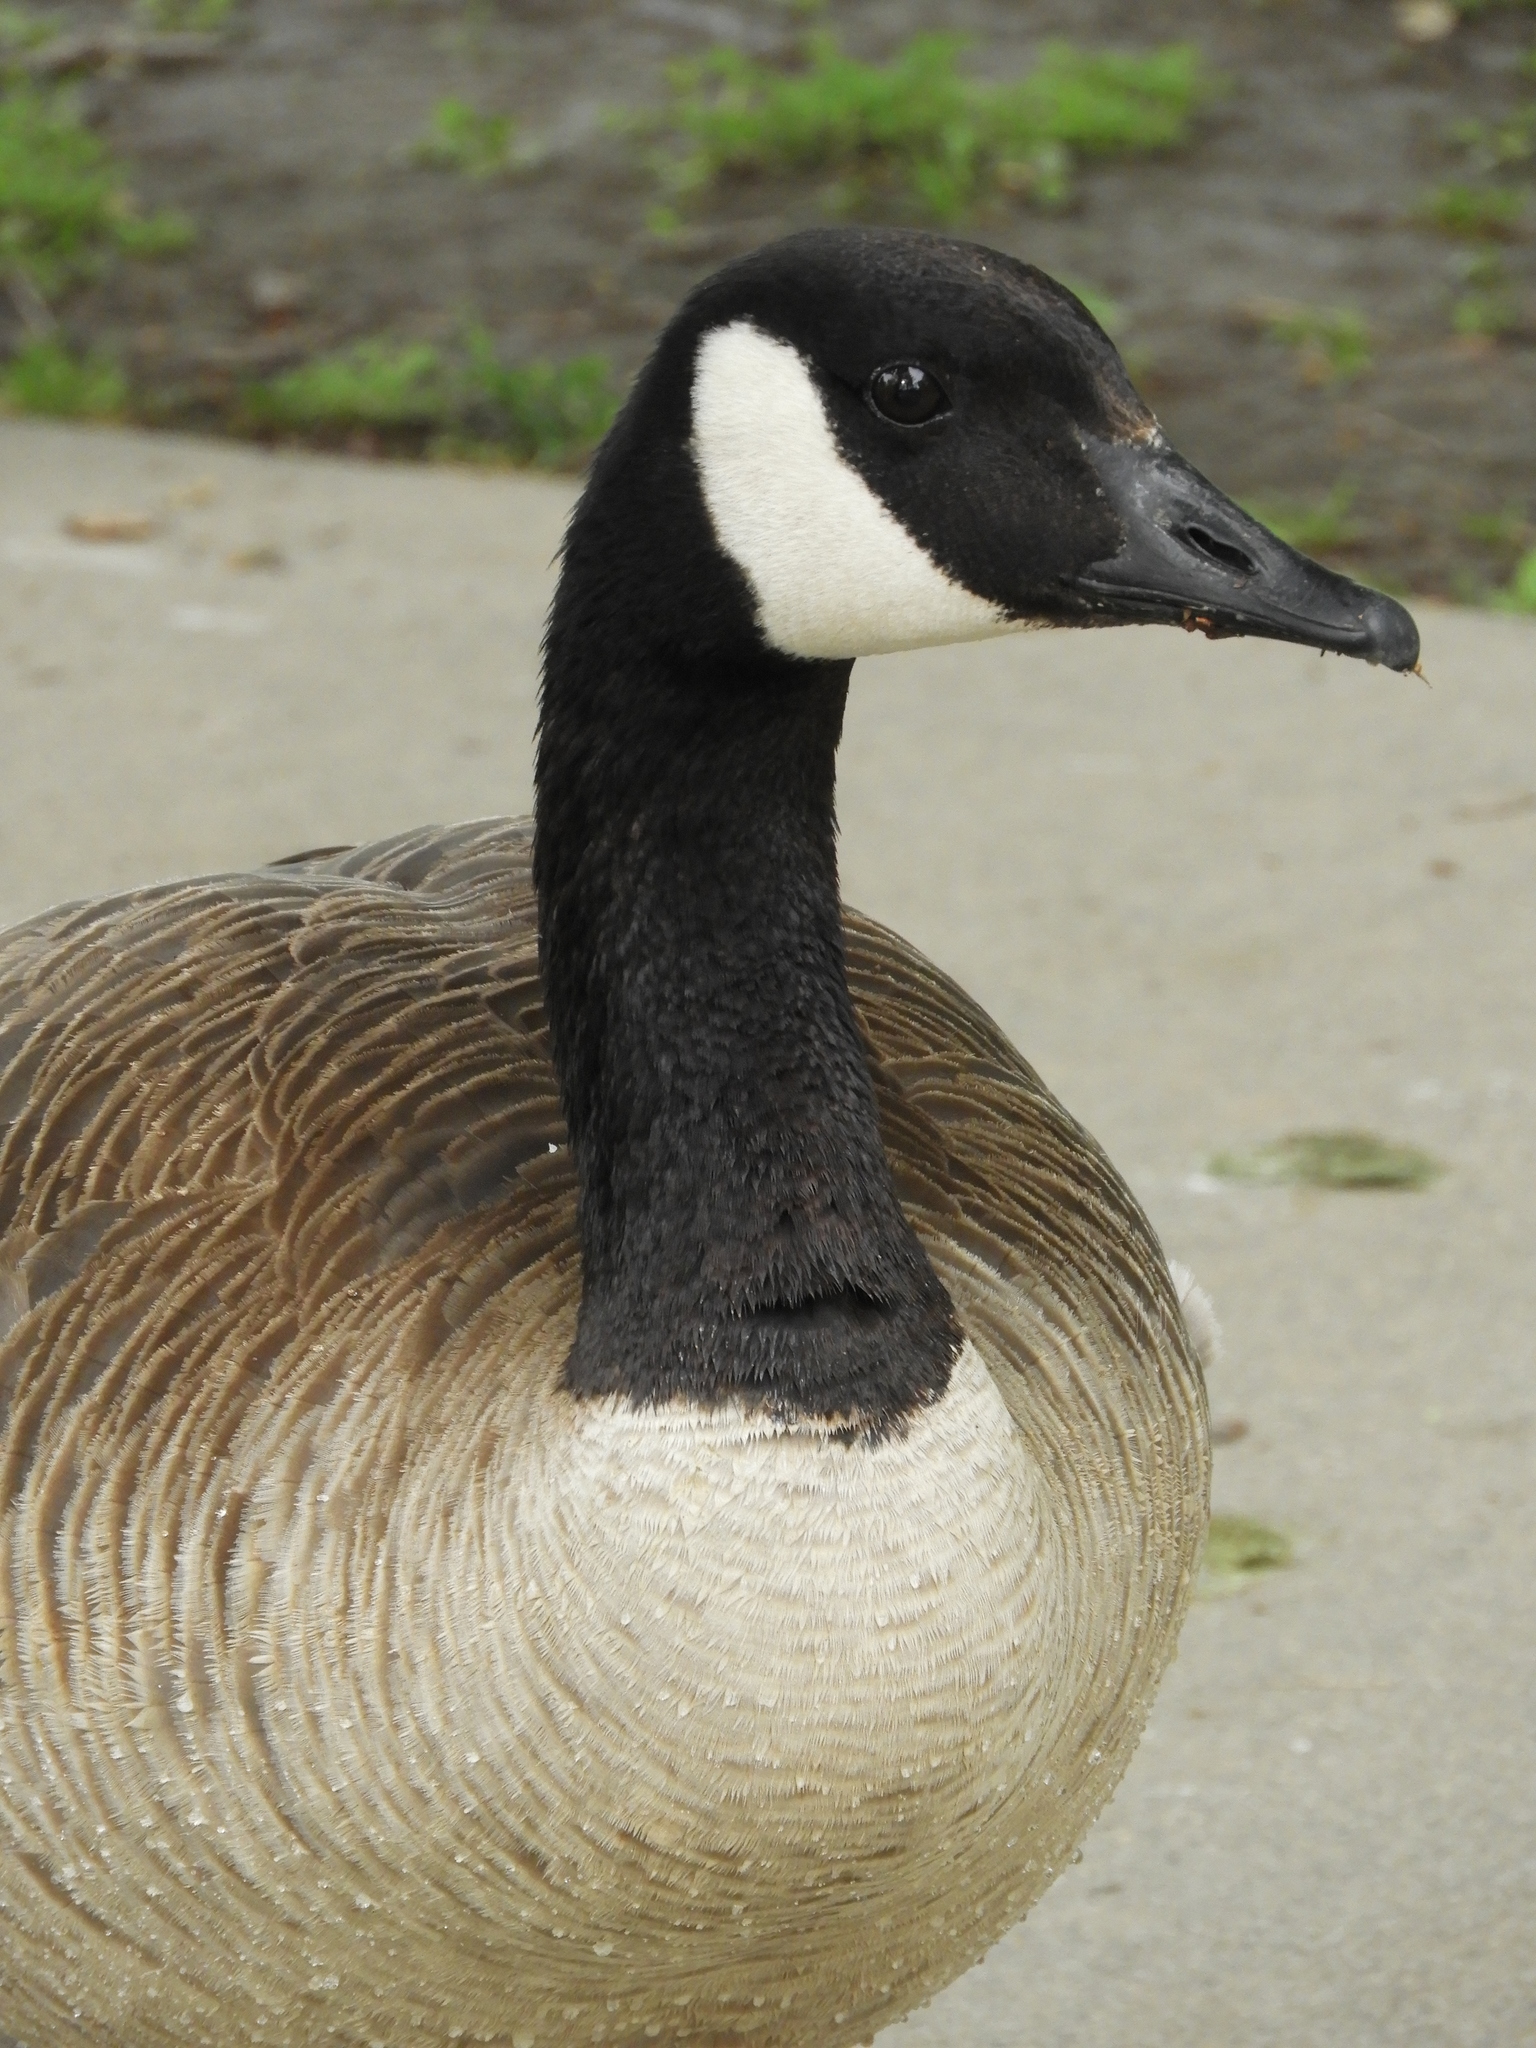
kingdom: Animalia
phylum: Chordata
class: Aves
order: Anseriformes
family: Anatidae
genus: Branta
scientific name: Branta canadensis
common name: Canada goose
